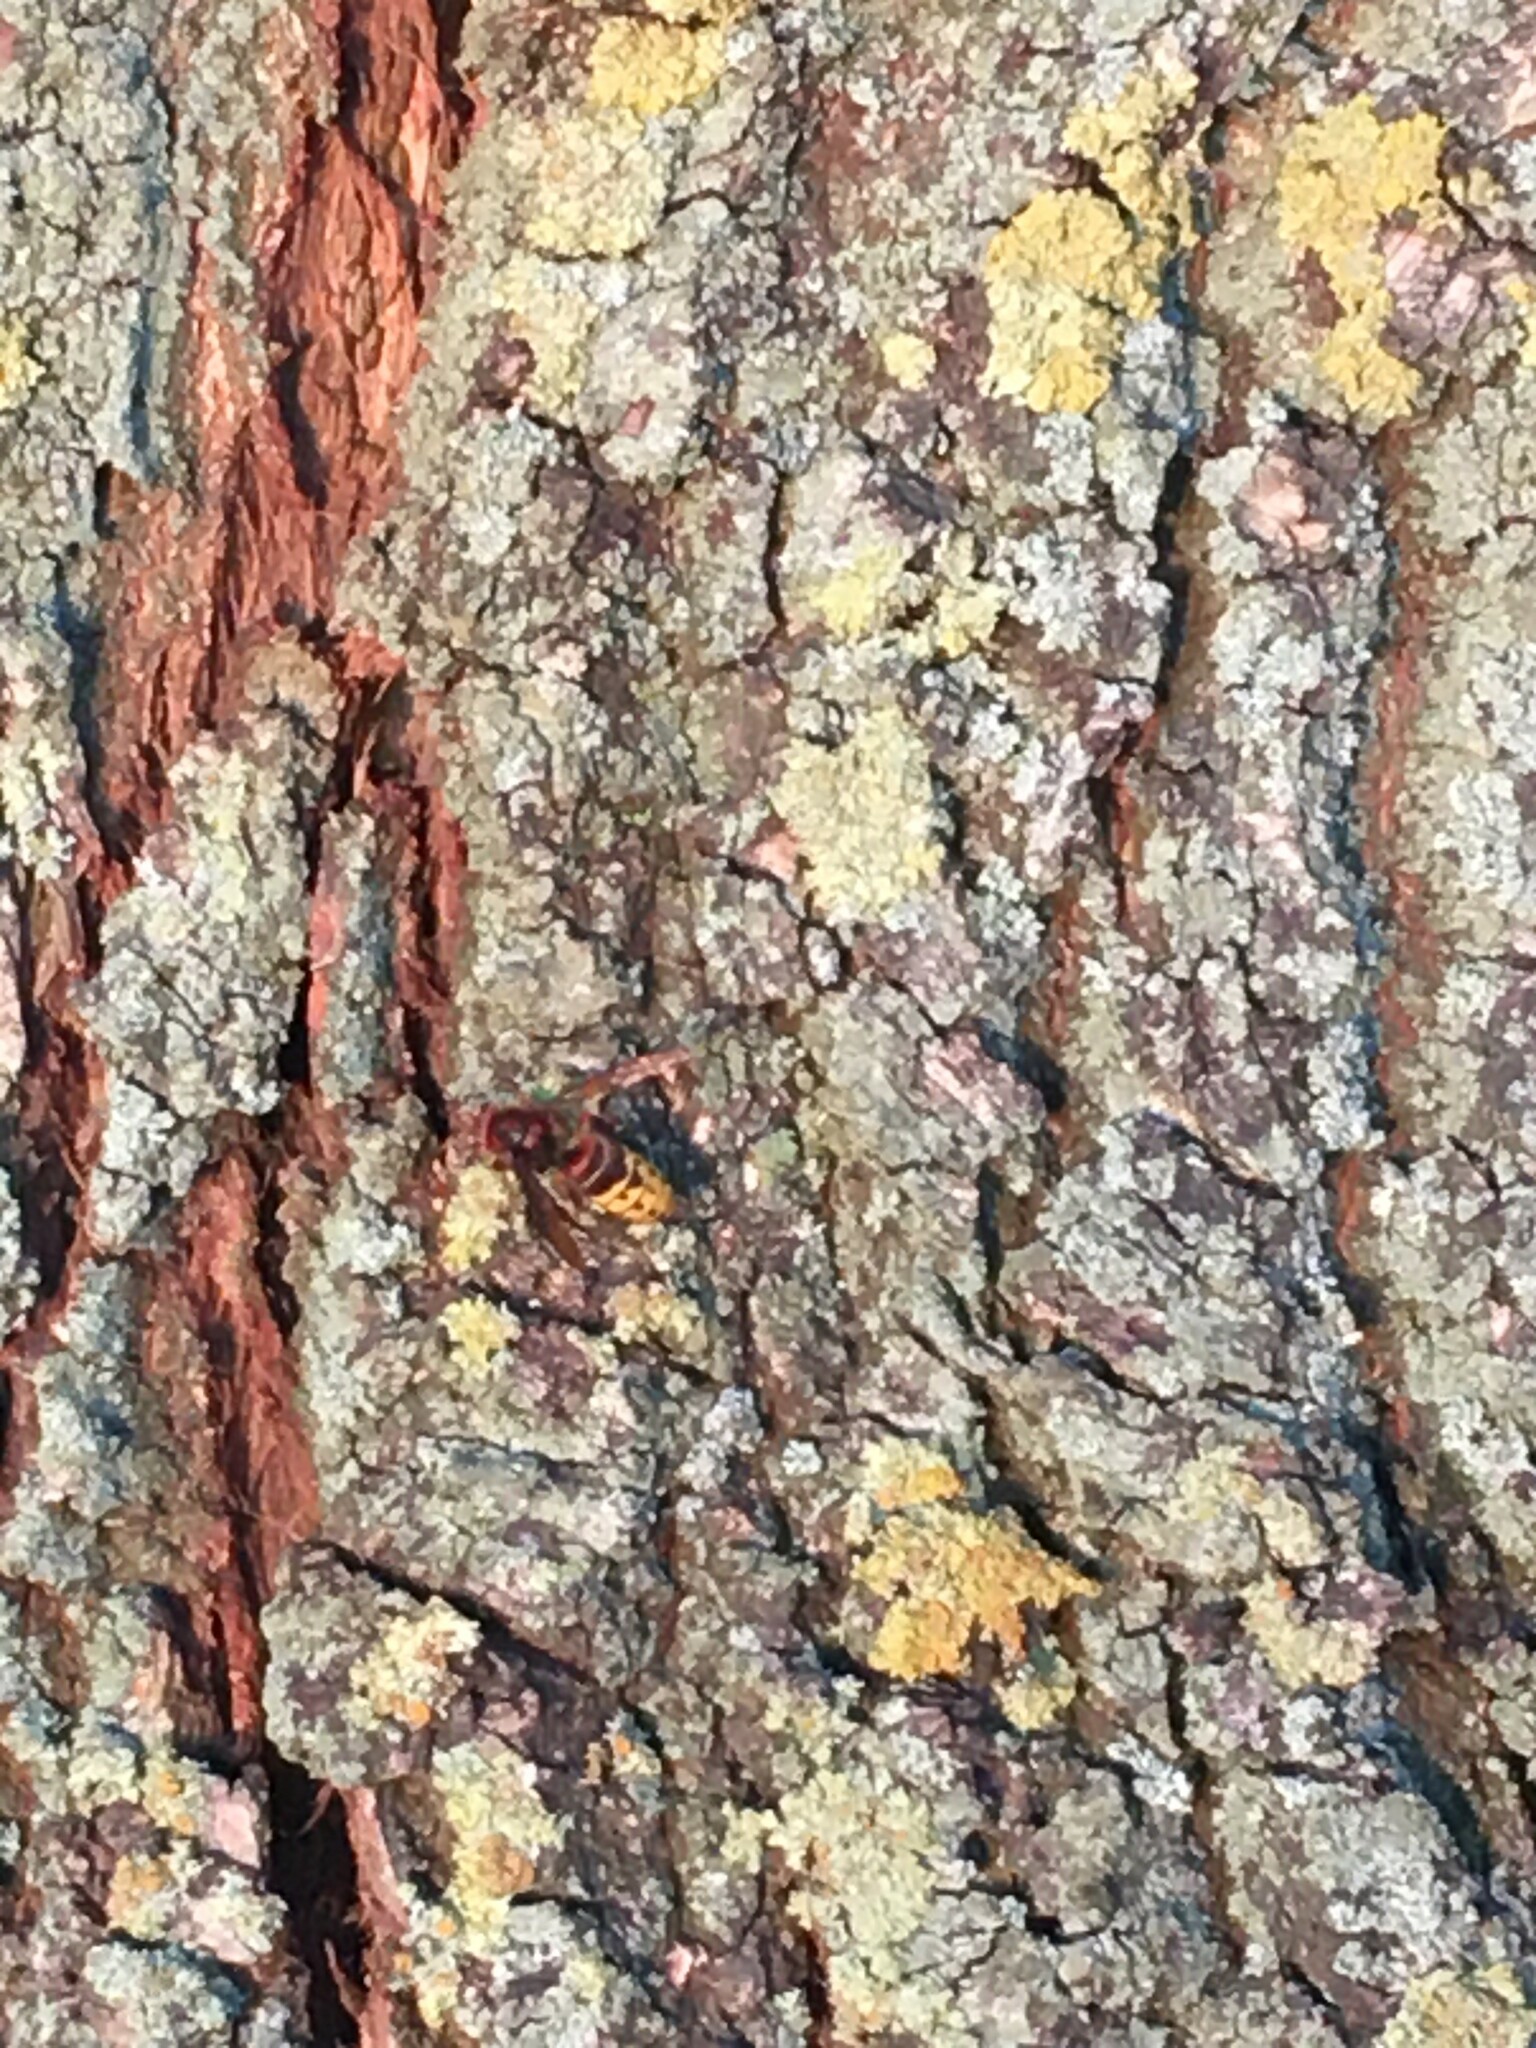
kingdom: Animalia
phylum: Arthropoda
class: Insecta
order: Hymenoptera
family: Vespidae
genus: Vespa
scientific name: Vespa crabro
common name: Hornet
